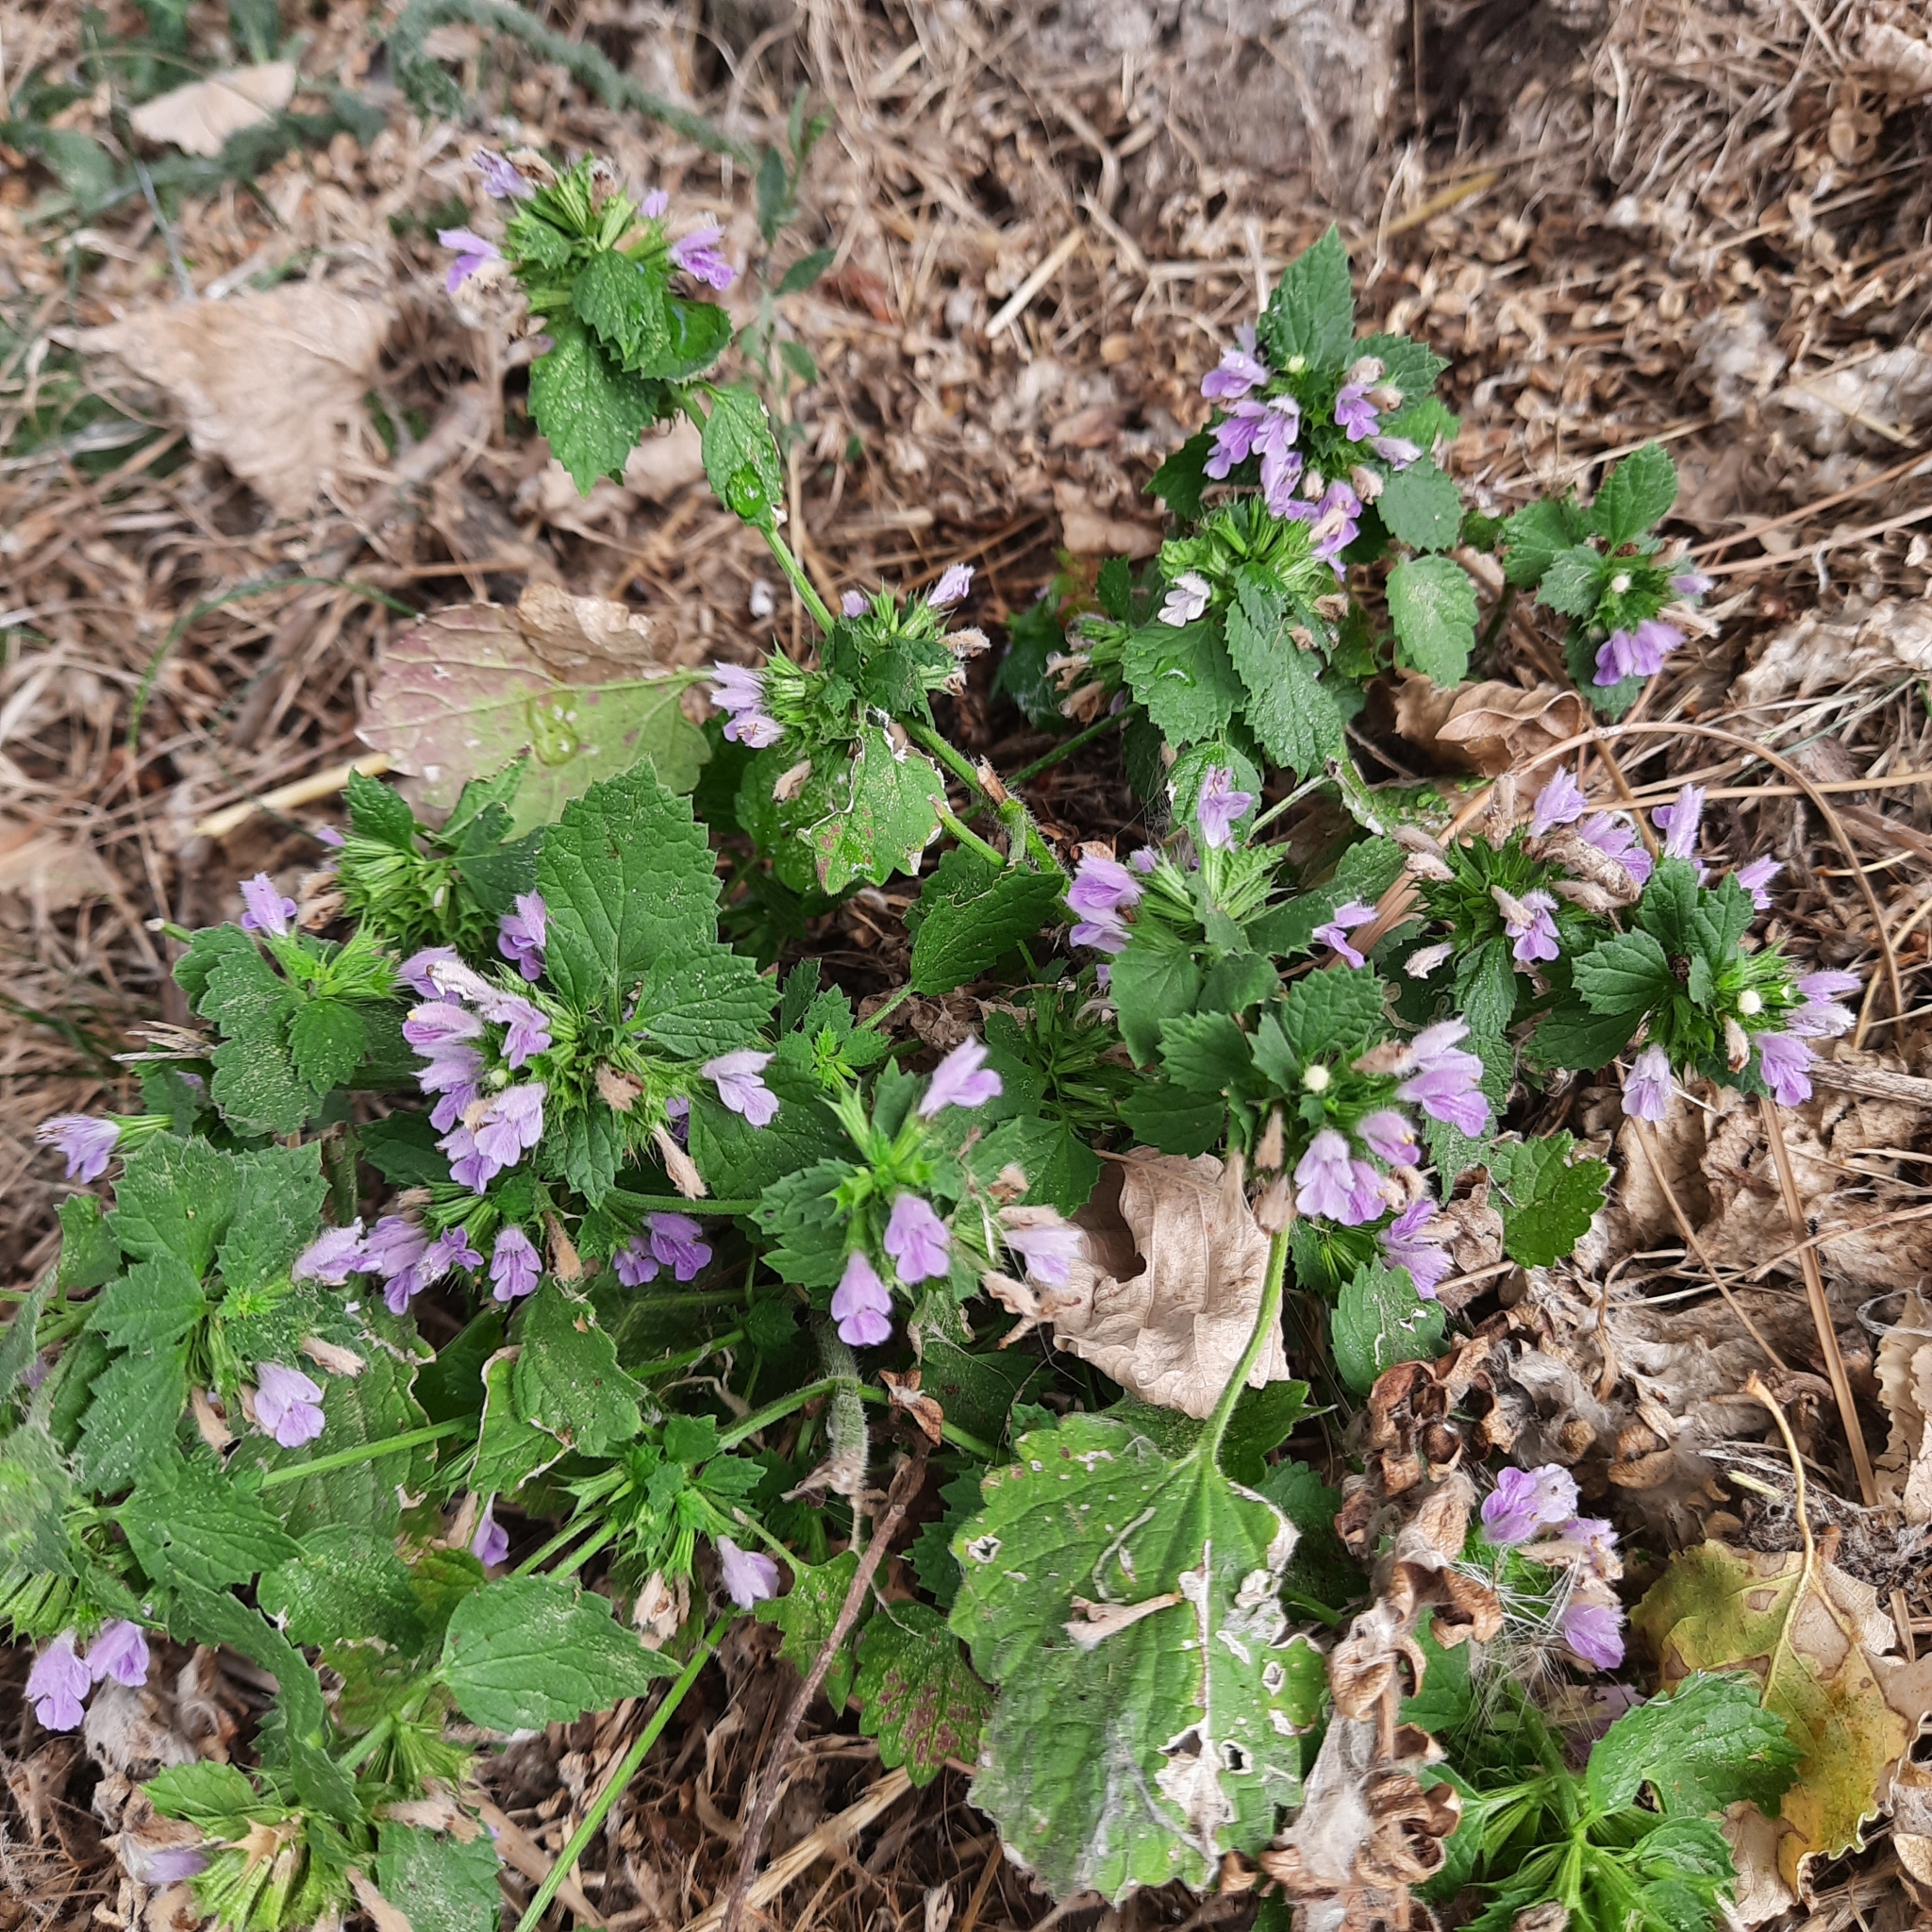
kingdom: Plantae
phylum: Tracheophyta
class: Magnoliopsida
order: Lamiales
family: Lamiaceae
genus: Ballota
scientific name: Ballota nigra
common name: Black horehound
